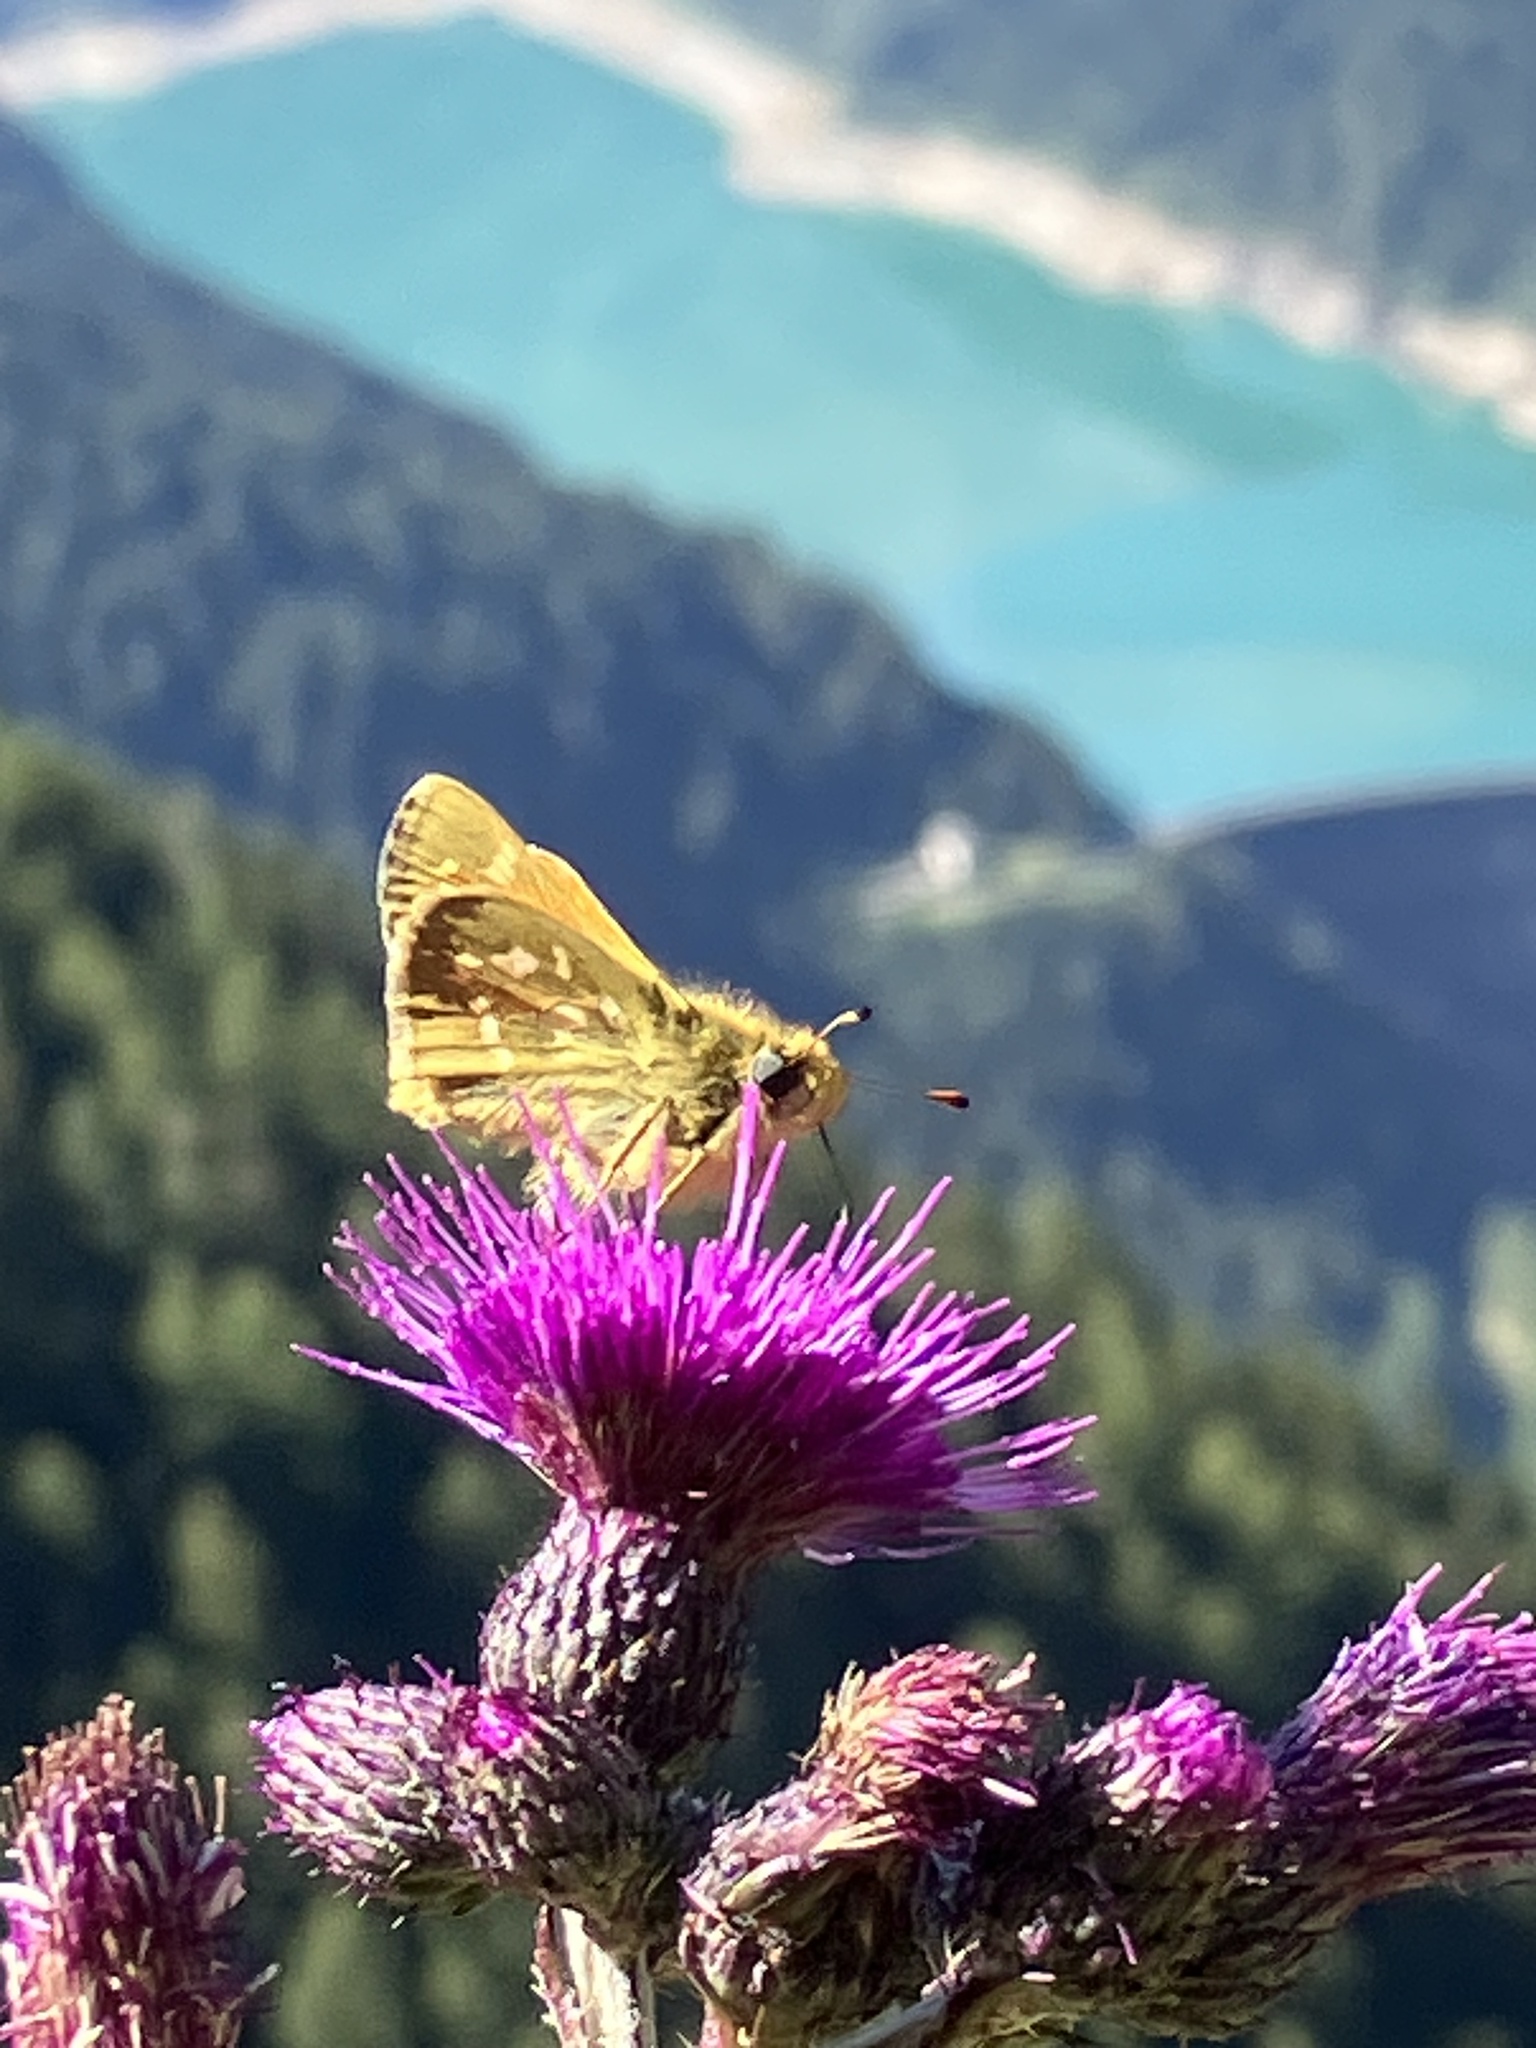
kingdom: Animalia
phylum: Arthropoda
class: Insecta
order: Lepidoptera
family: Hesperiidae
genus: Hesperia
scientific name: Hesperia comma
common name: Common branded skipper
